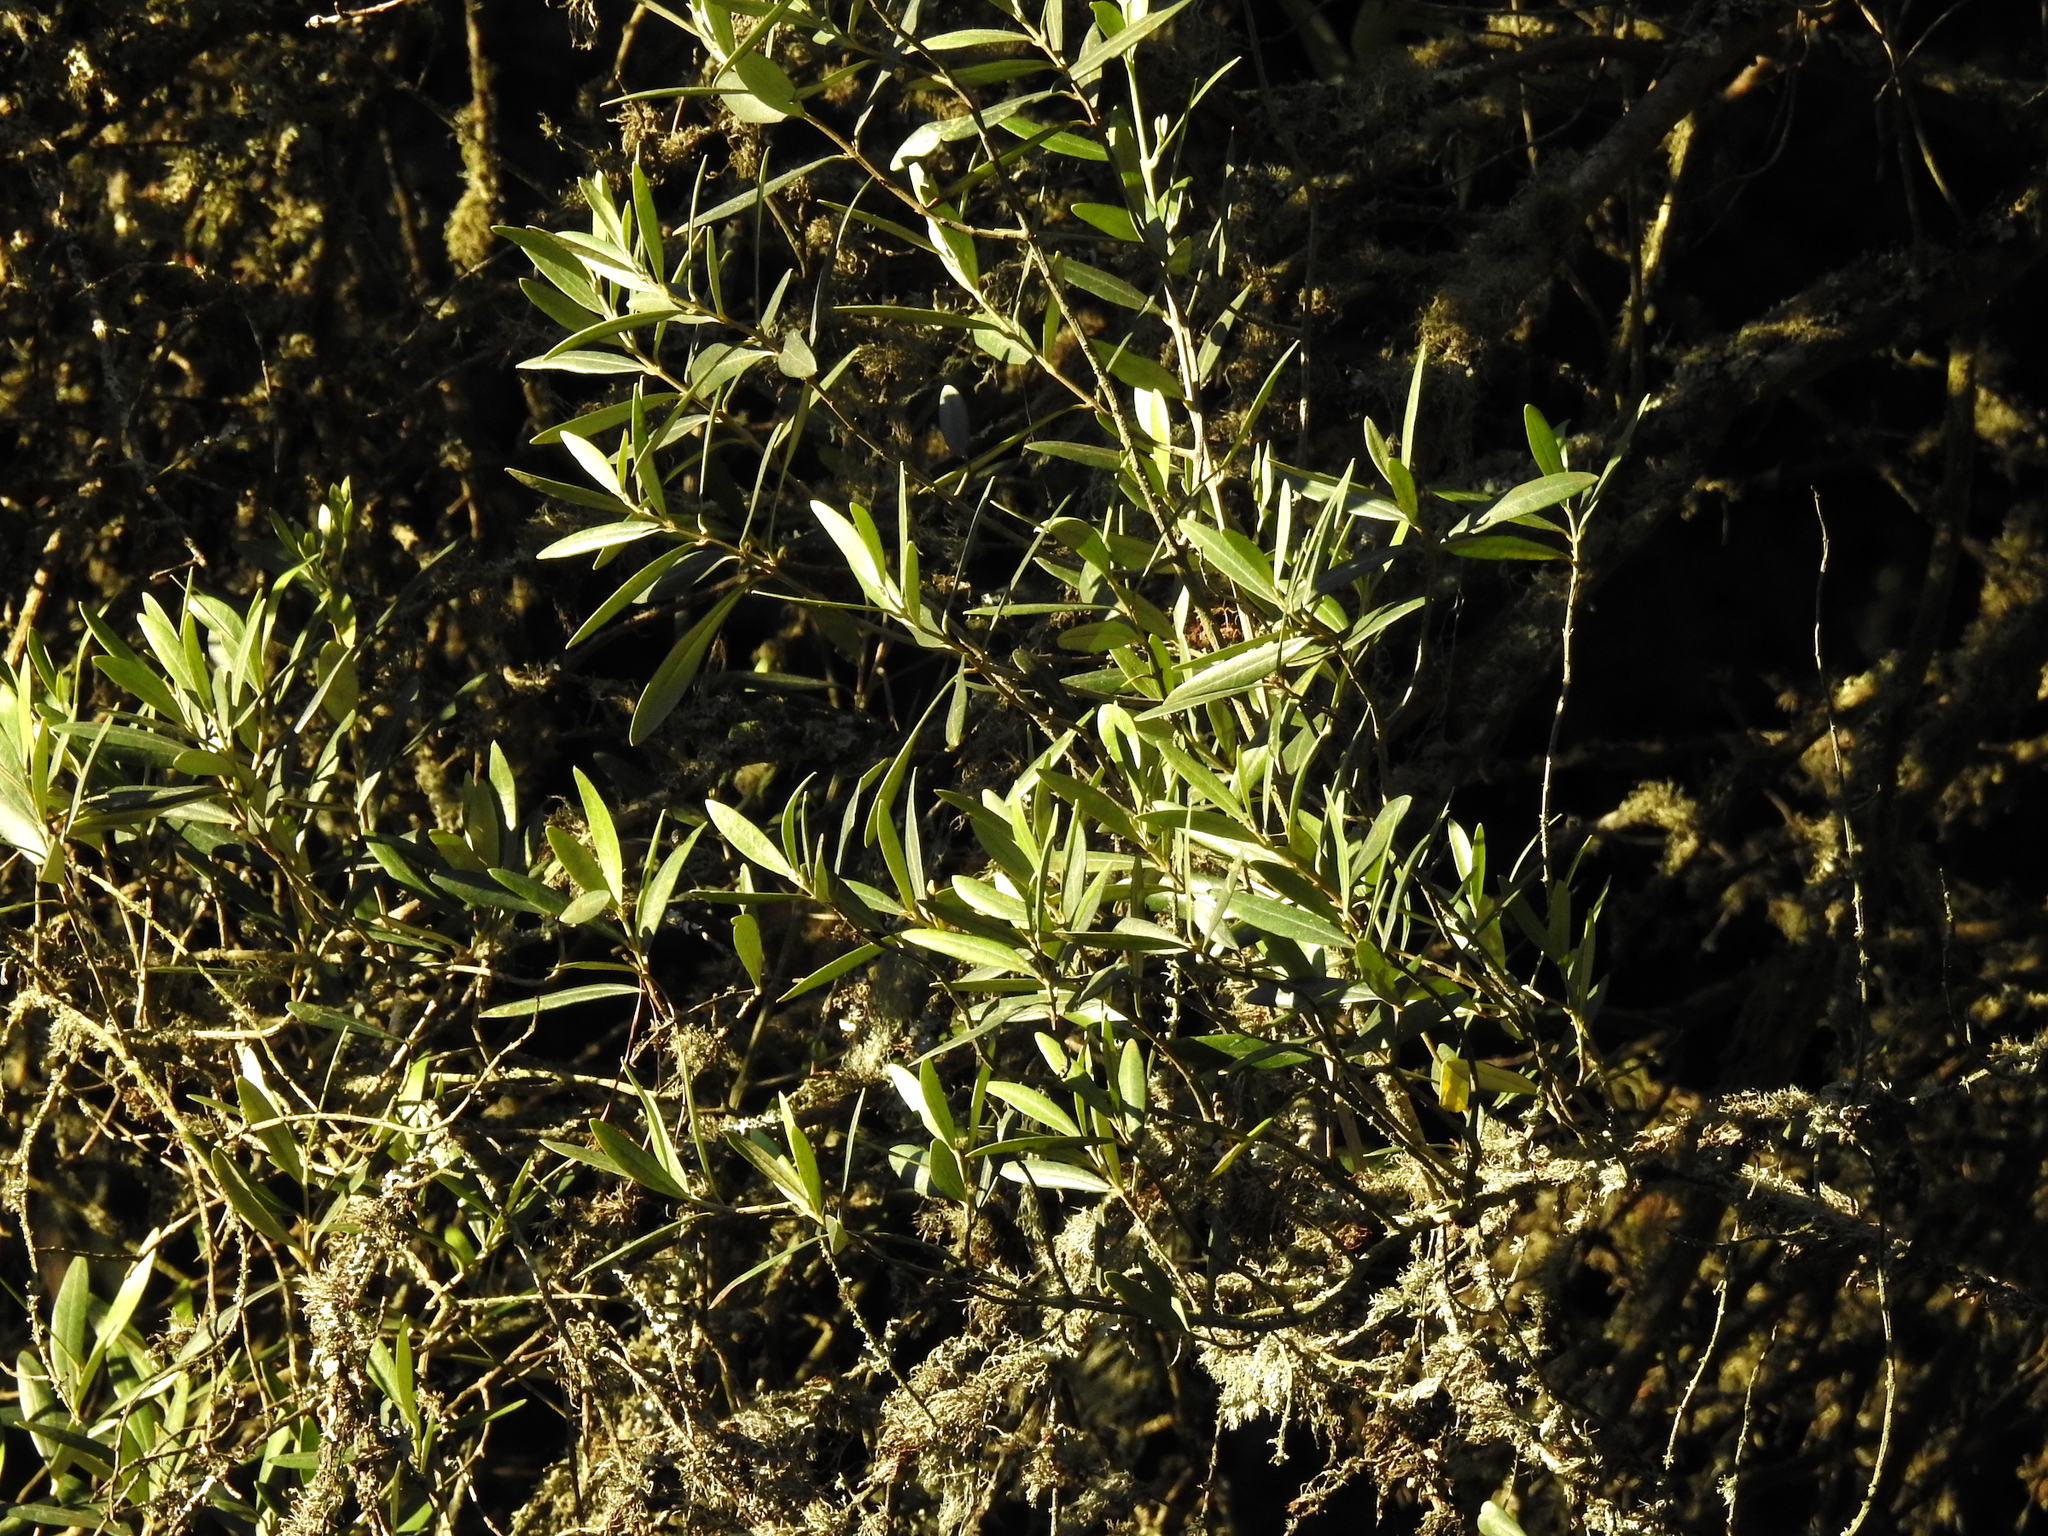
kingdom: Plantae
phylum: Tracheophyta
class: Magnoliopsida
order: Lamiales
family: Oleaceae
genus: Olea
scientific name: Olea europaea
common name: Olive
